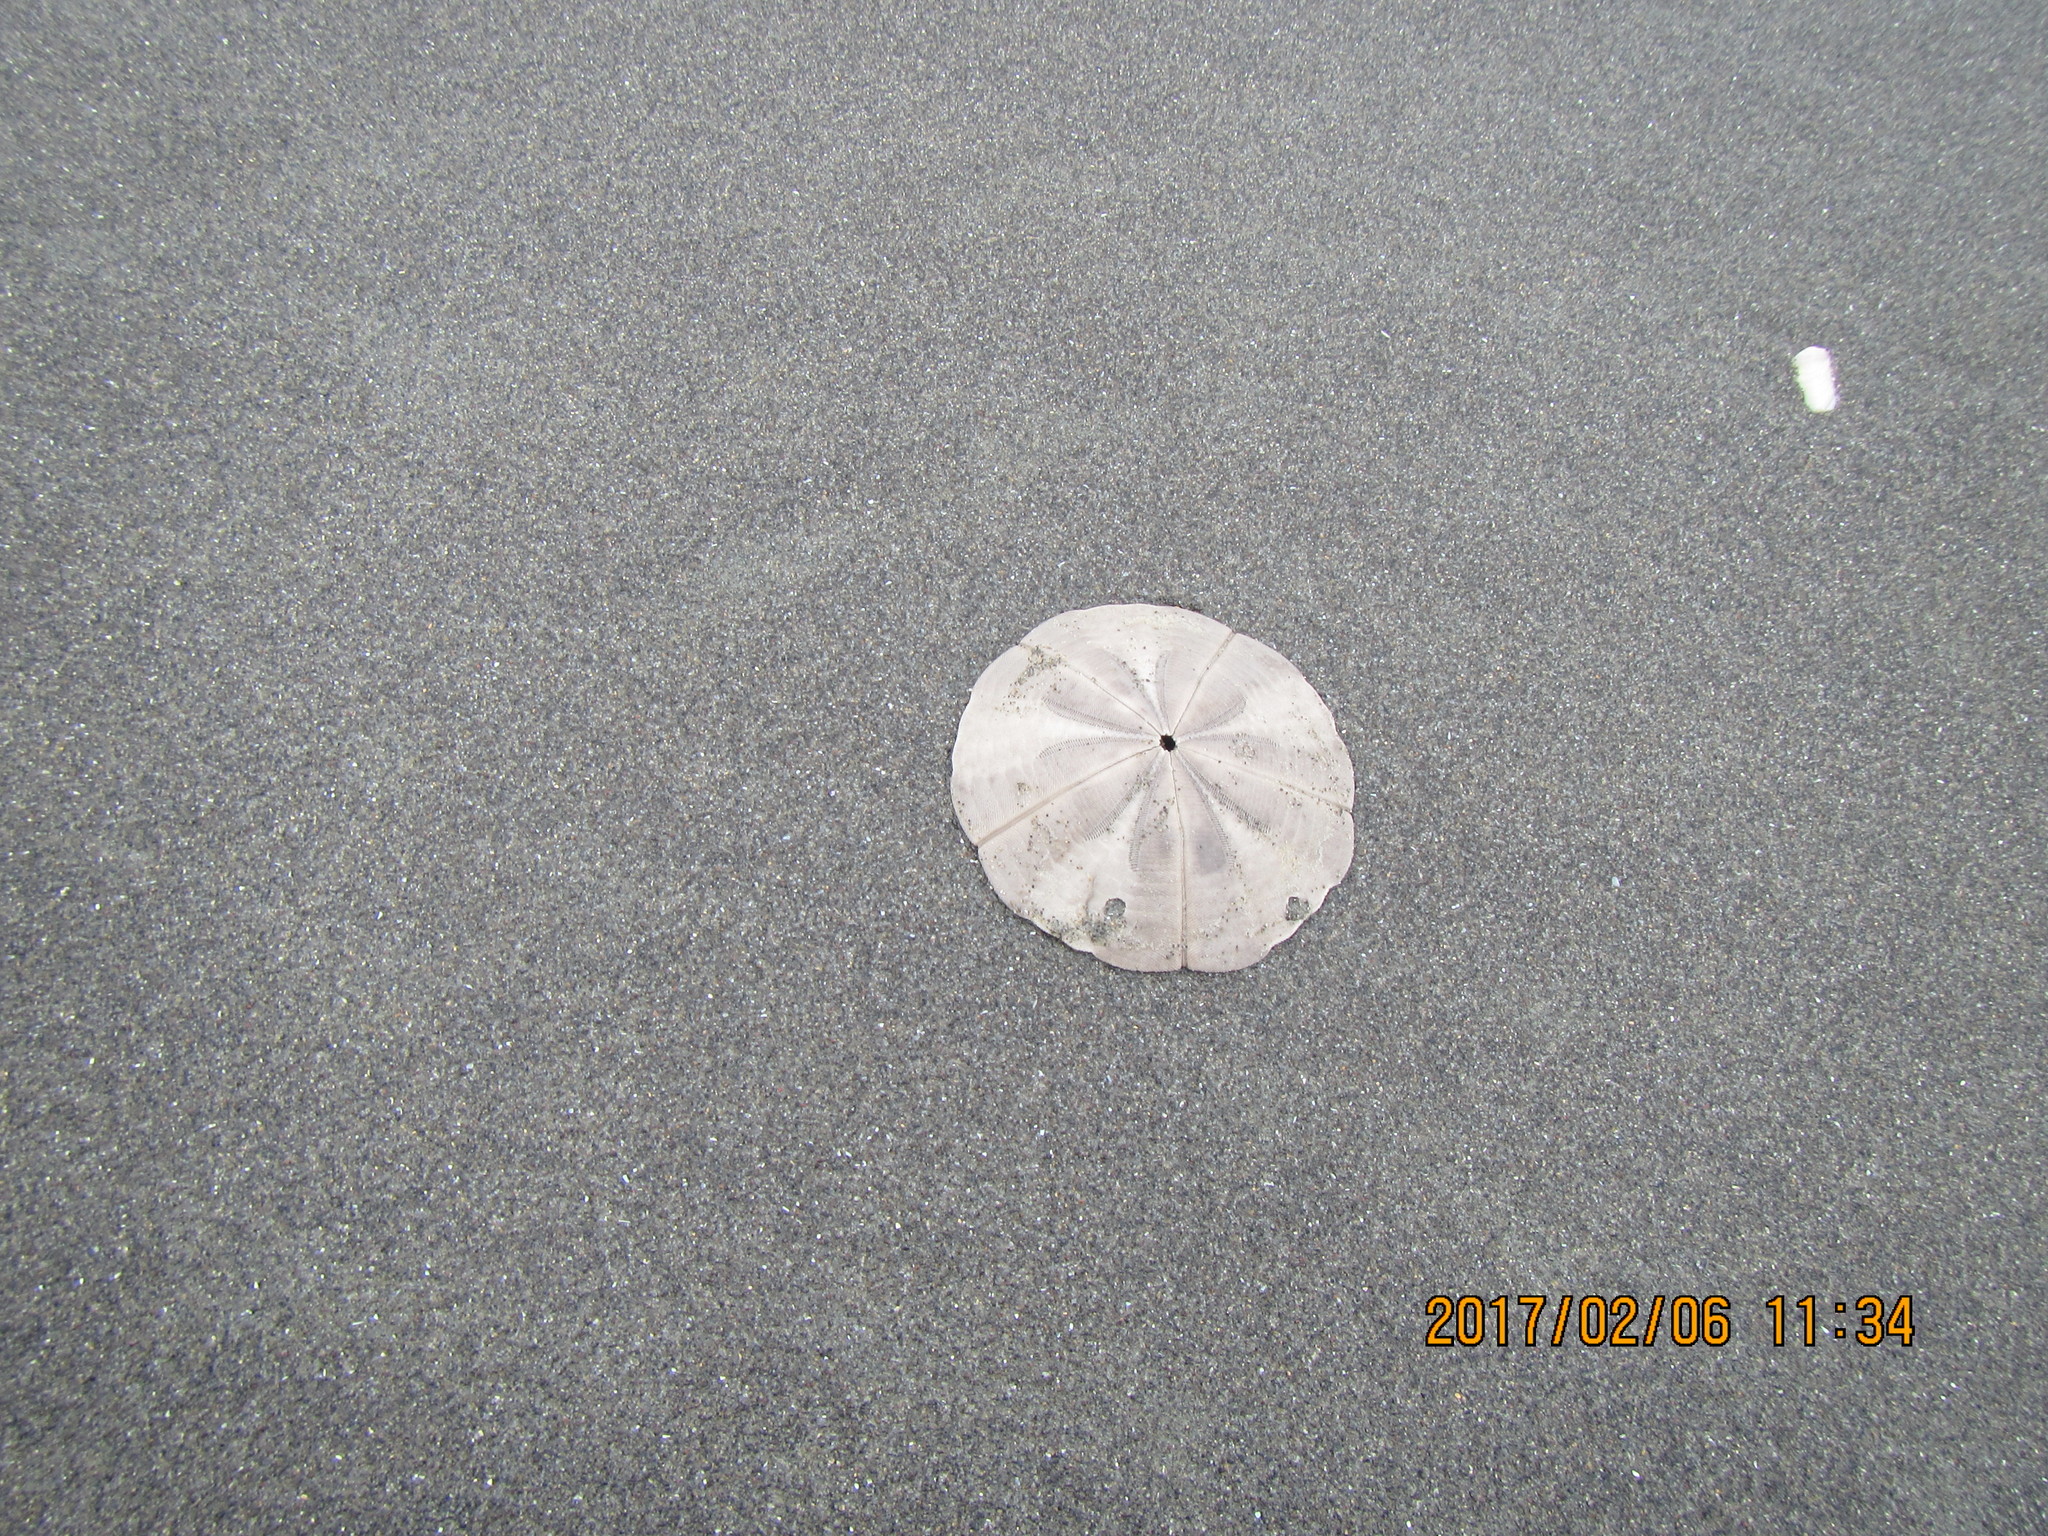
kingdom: Animalia
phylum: Echinodermata
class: Echinoidea
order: Clypeasteroida
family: Clypeasteridae
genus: Fellaster
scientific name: Fellaster zelandiae
